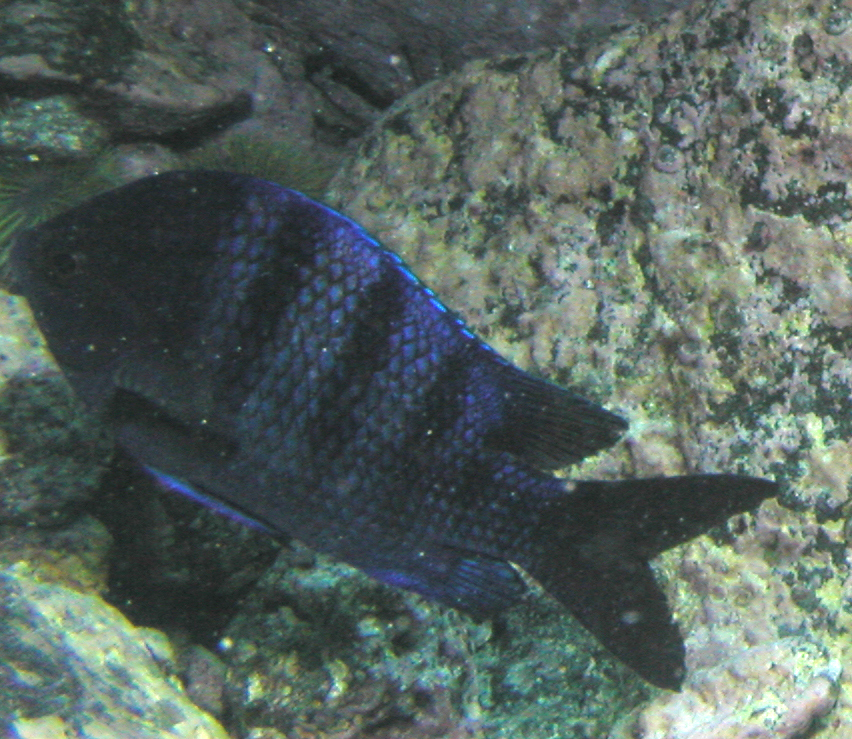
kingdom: Animalia
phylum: Chordata
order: Perciformes
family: Pomacentridae
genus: Abudefduf
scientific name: Abudefduf troschelii
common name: Panamic sergeant major
